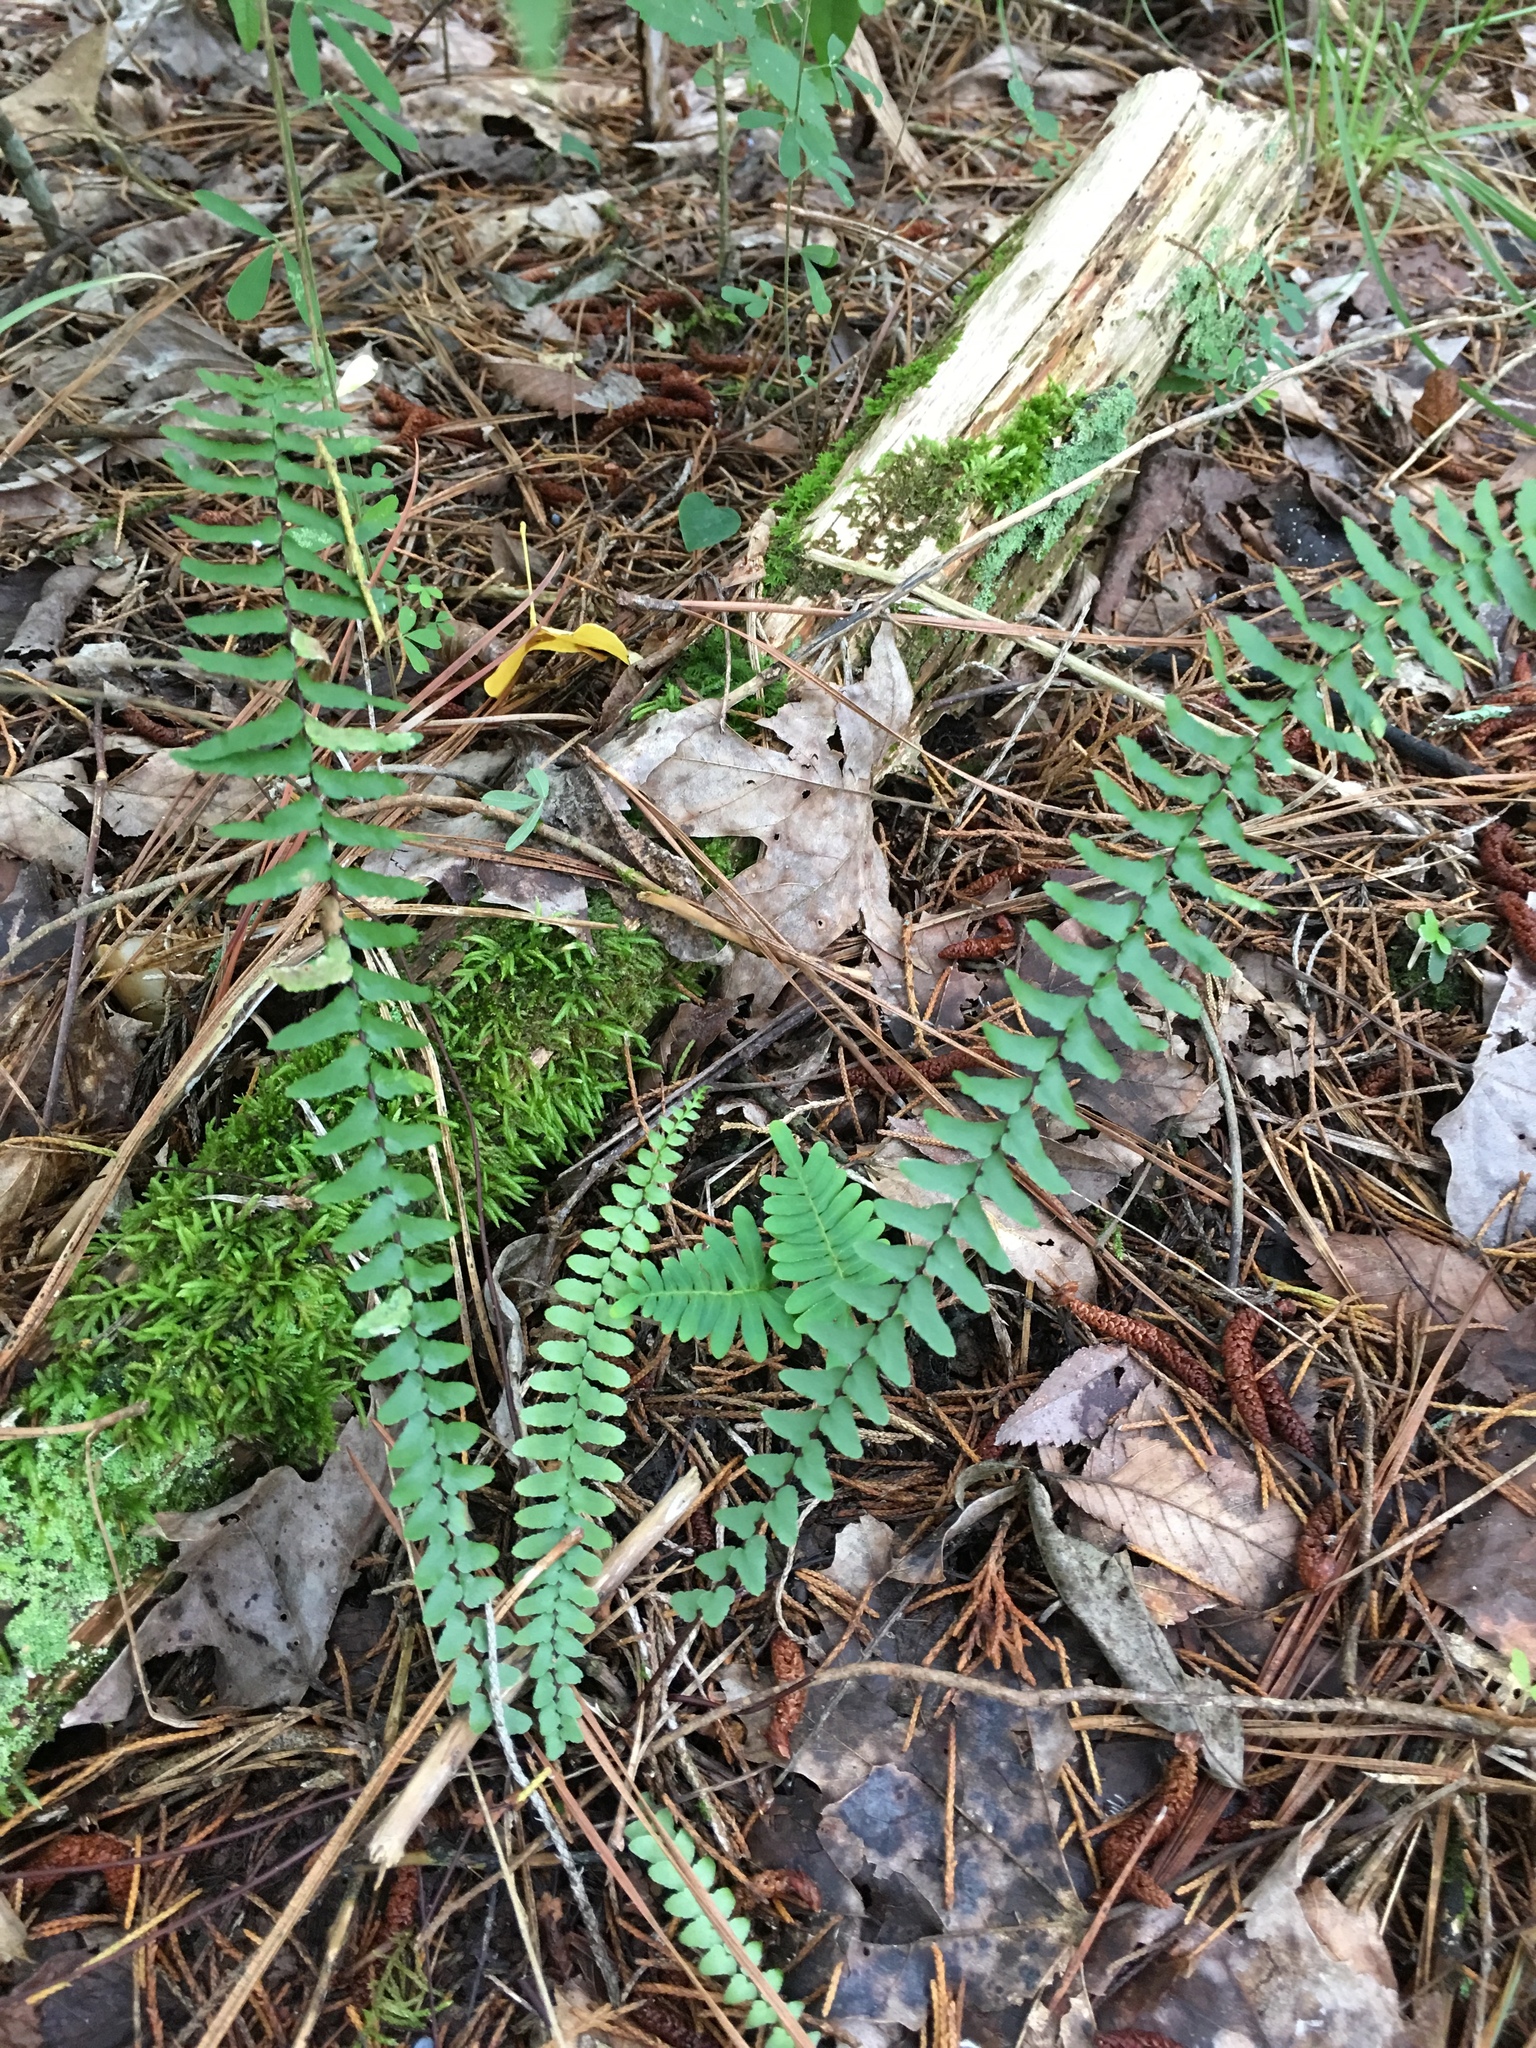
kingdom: Plantae
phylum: Tracheophyta
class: Polypodiopsida
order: Polypodiales
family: Aspleniaceae
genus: Asplenium
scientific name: Asplenium platyneuron
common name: Ebony spleenwort
